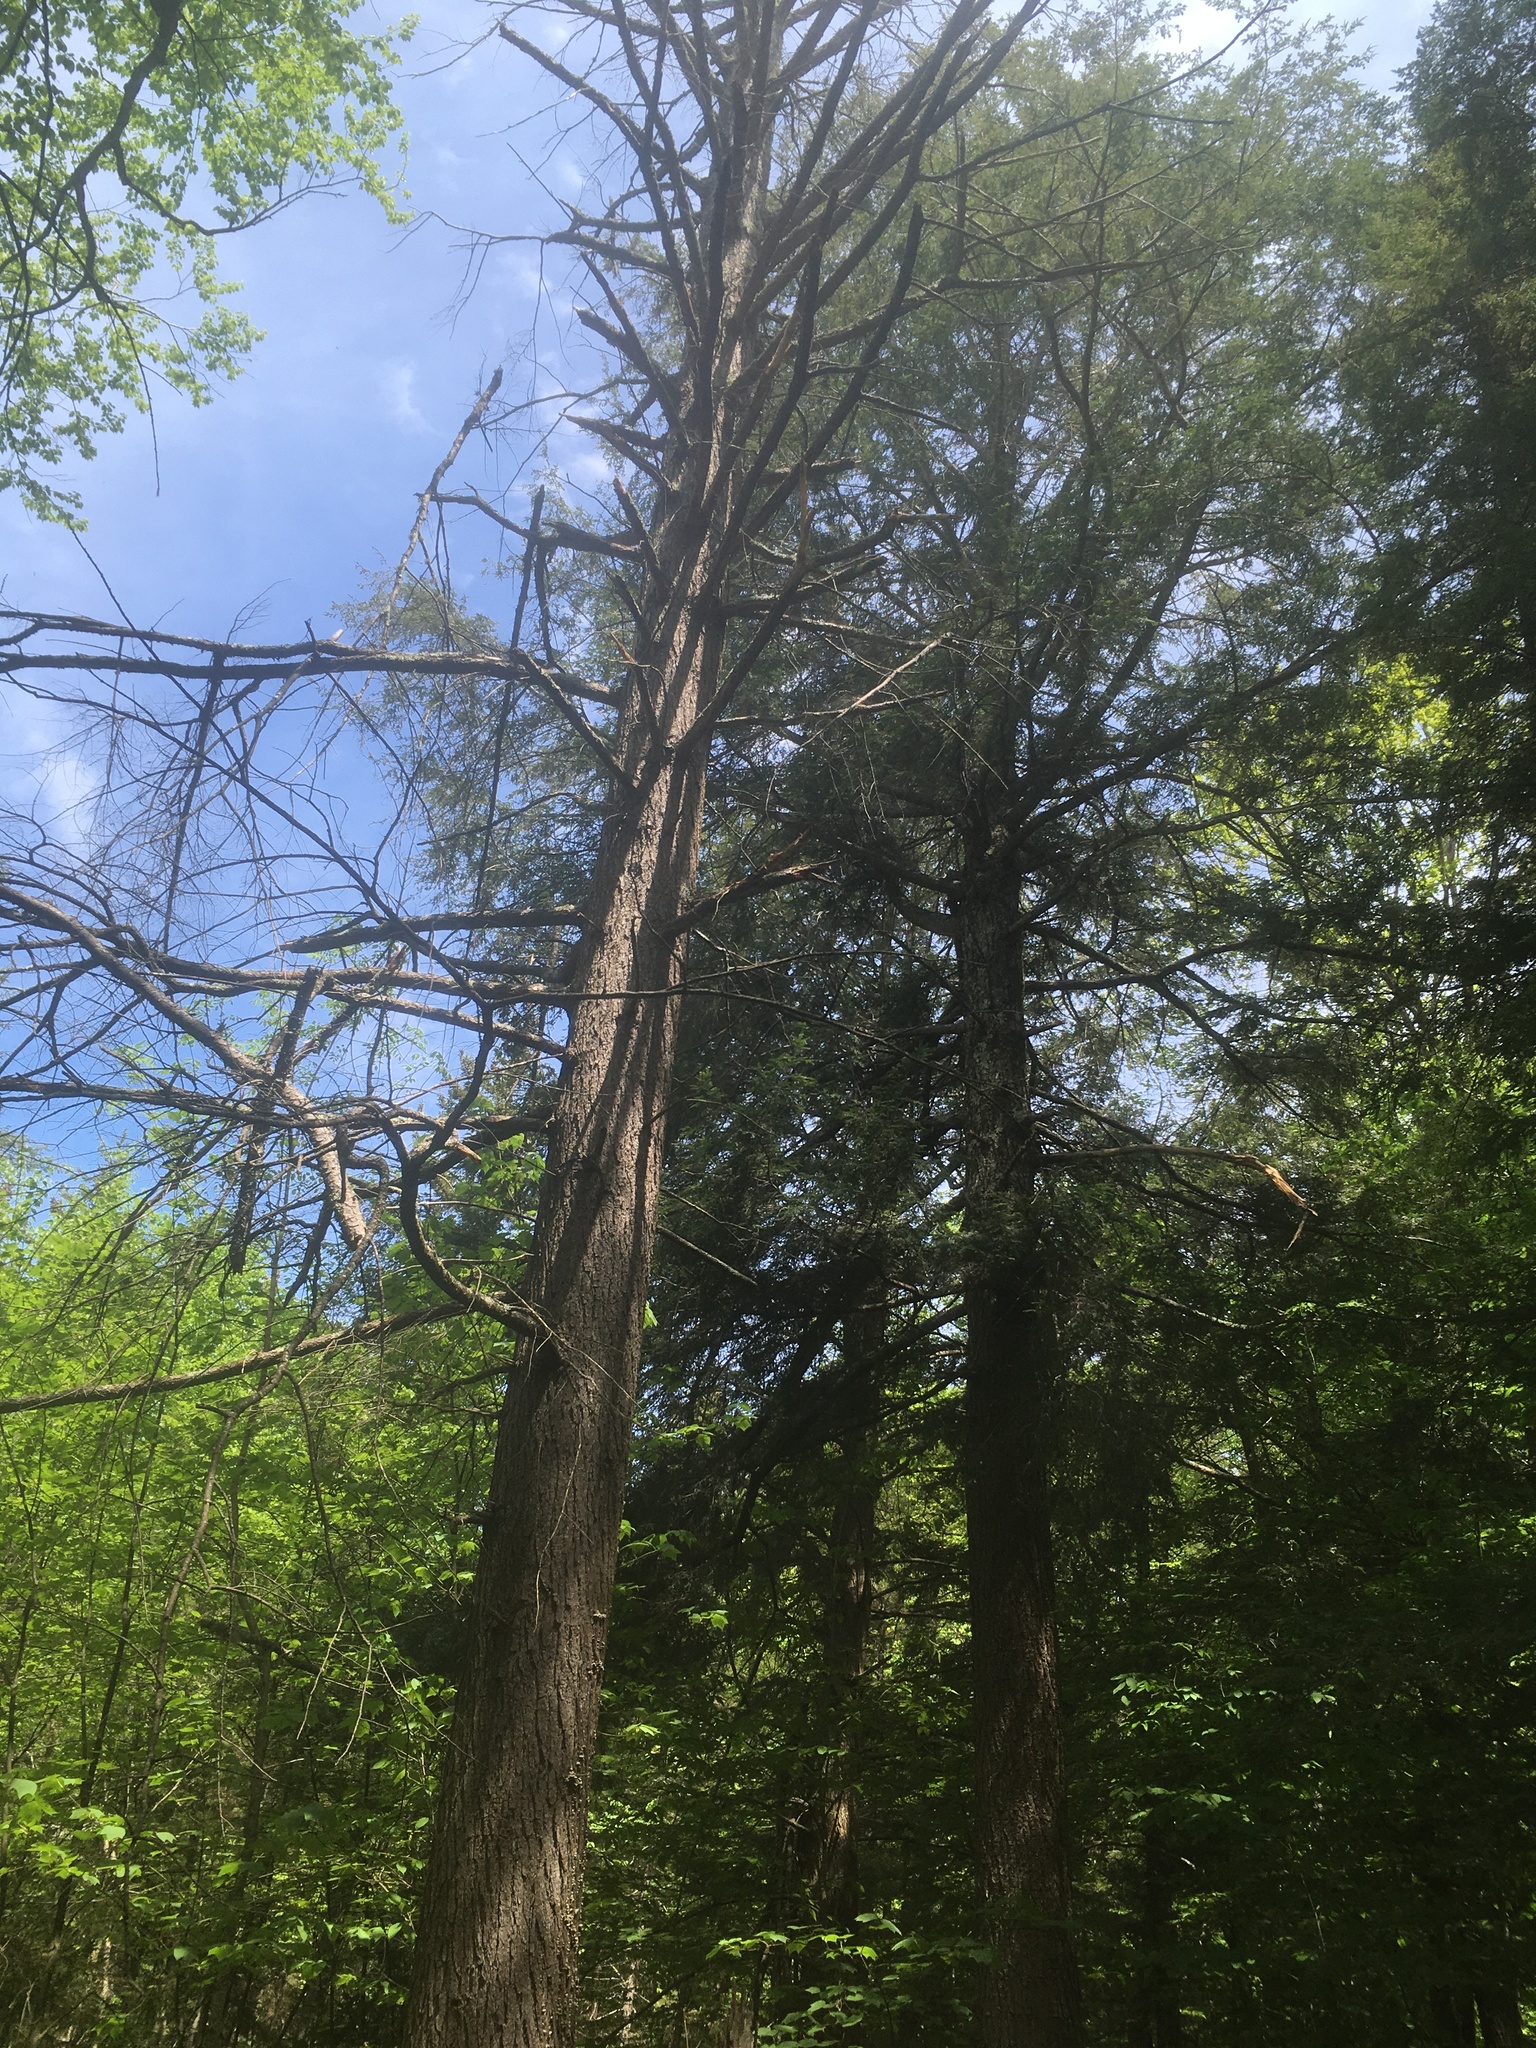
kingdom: Plantae
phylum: Tracheophyta
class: Pinopsida
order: Pinales
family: Pinaceae
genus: Tsuga
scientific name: Tsuga canadensis
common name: Eastern hemlock
